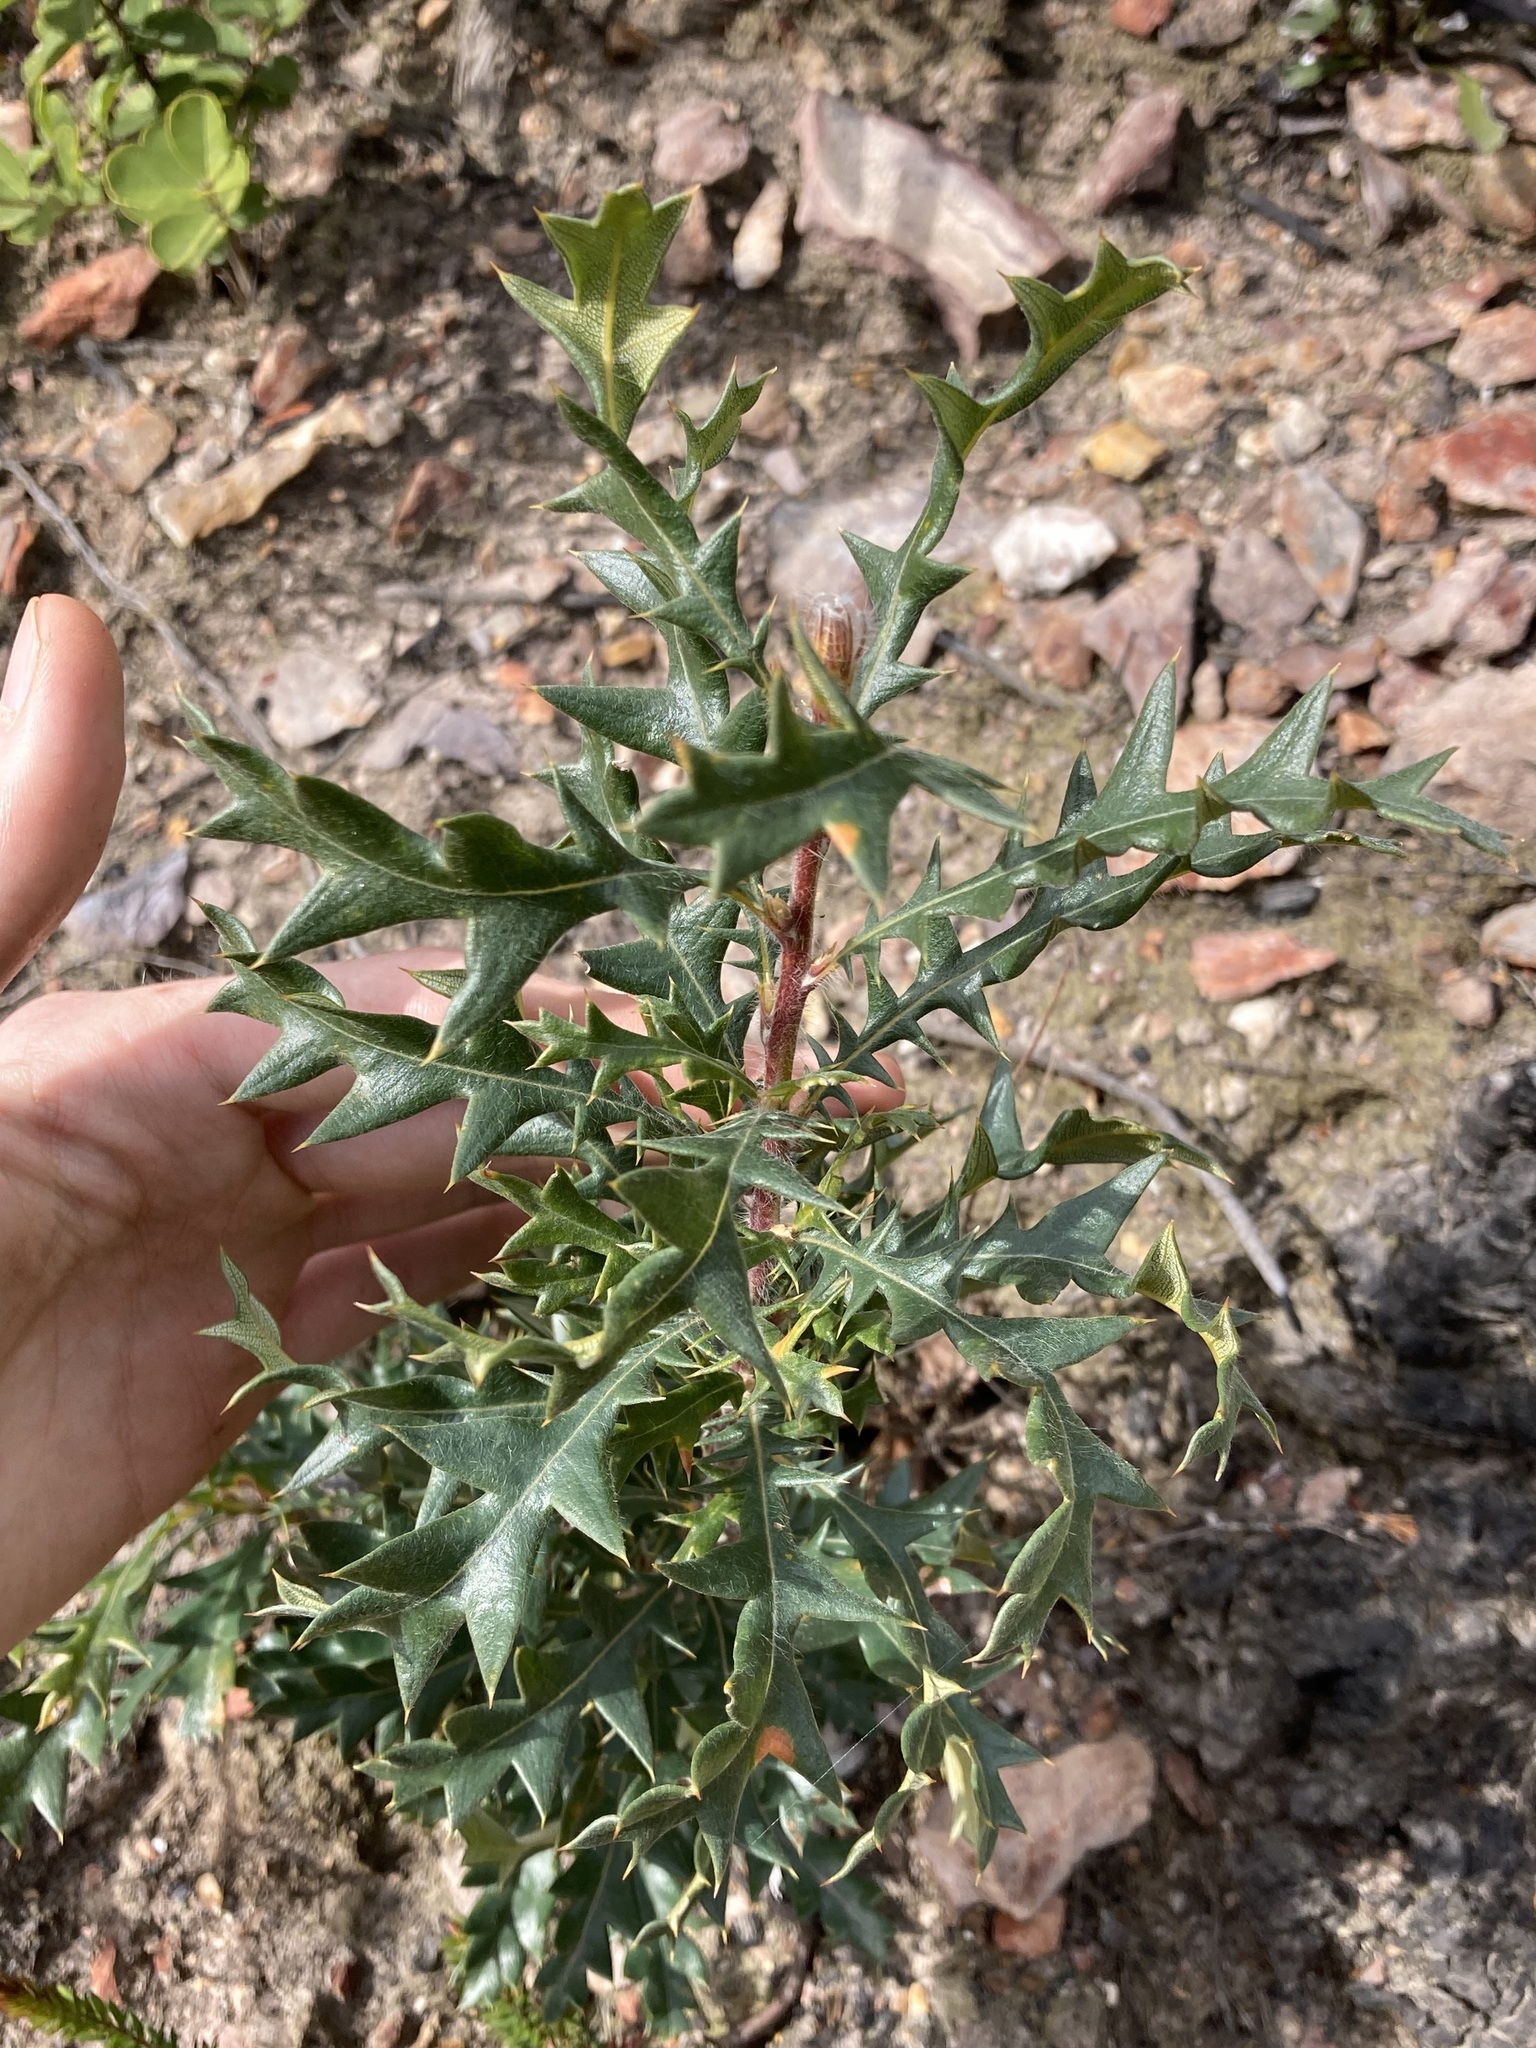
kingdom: Plantae
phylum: Tracheophyta
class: Magnoliopsida
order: Proteales
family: Proteaceae
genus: Banksia
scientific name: Banksia armata
